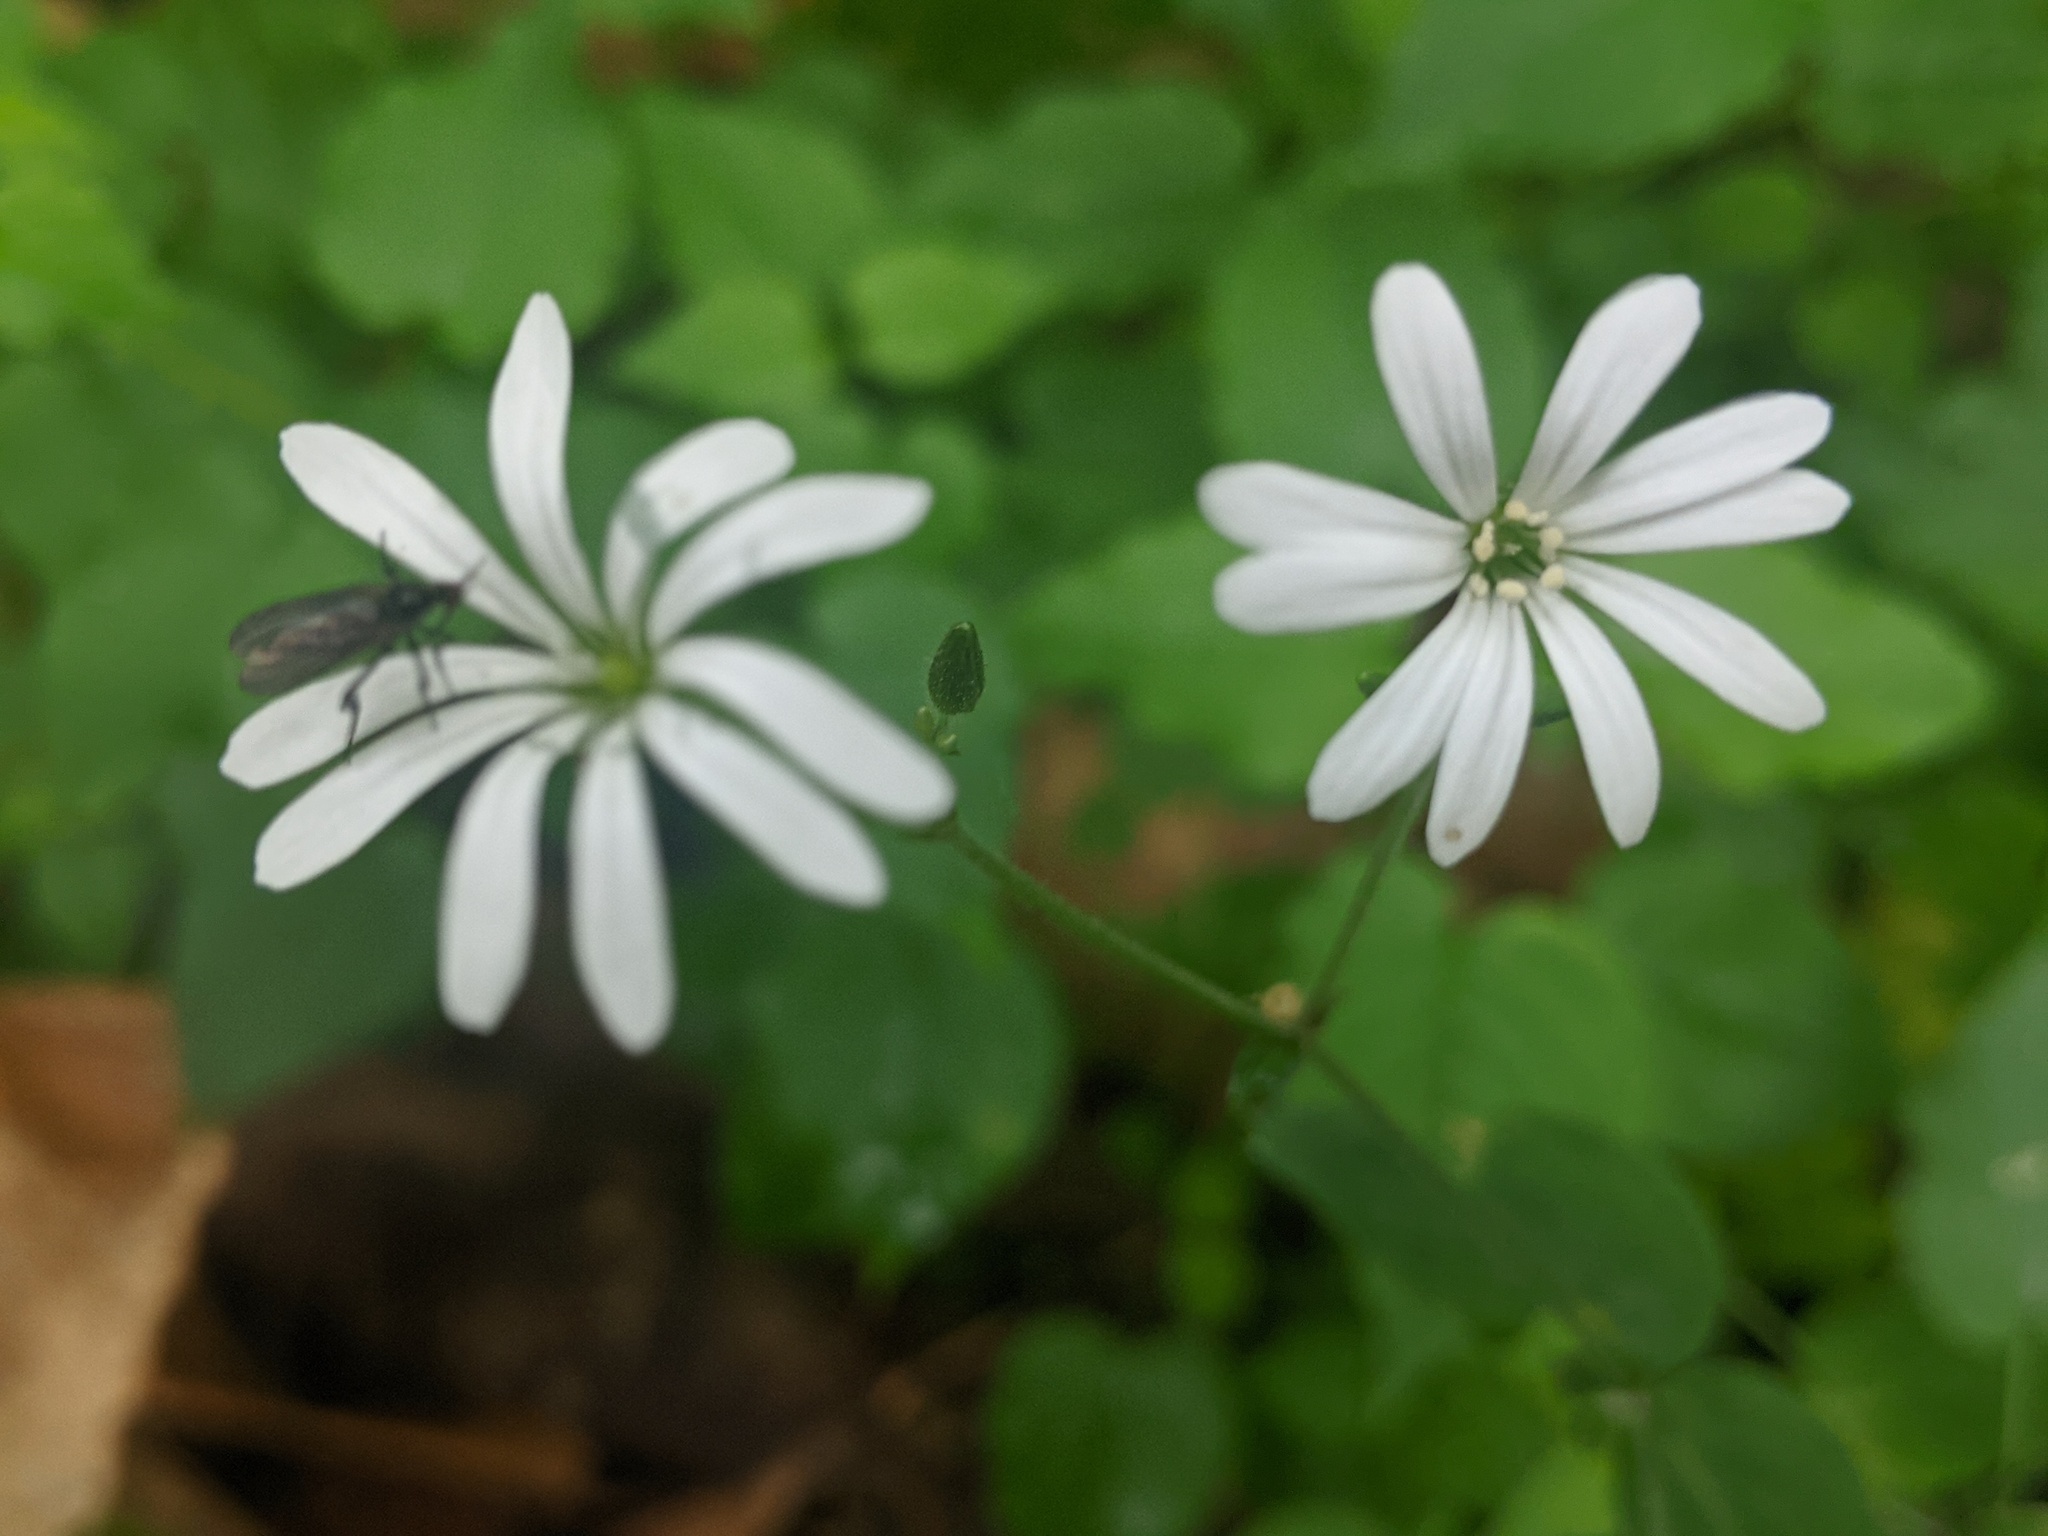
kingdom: Plantae
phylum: Tracheophyta
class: Magnoliopsida
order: Caryophyllales
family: Caryophyllaceae
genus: Stellaria
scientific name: Stellaria nemorum
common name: Wood stitchwort
